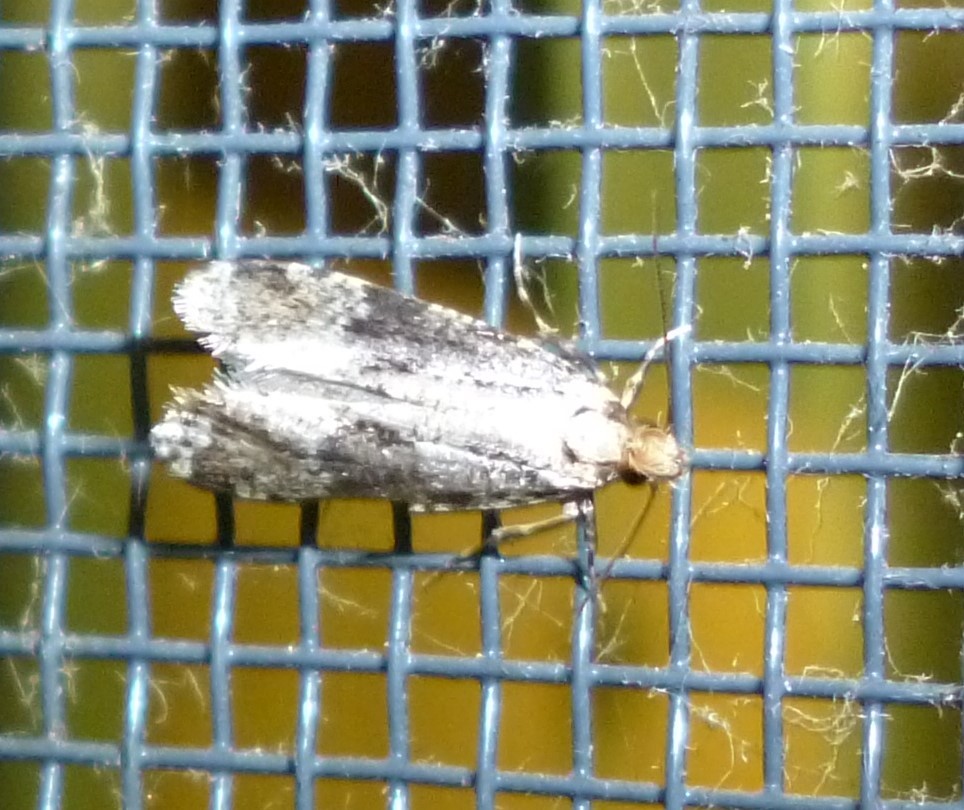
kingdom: Animalia
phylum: Arthropoda
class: Insecta
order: Lepidoptera
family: Tineidae
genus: Scardiella
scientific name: Scardiella approximatella
